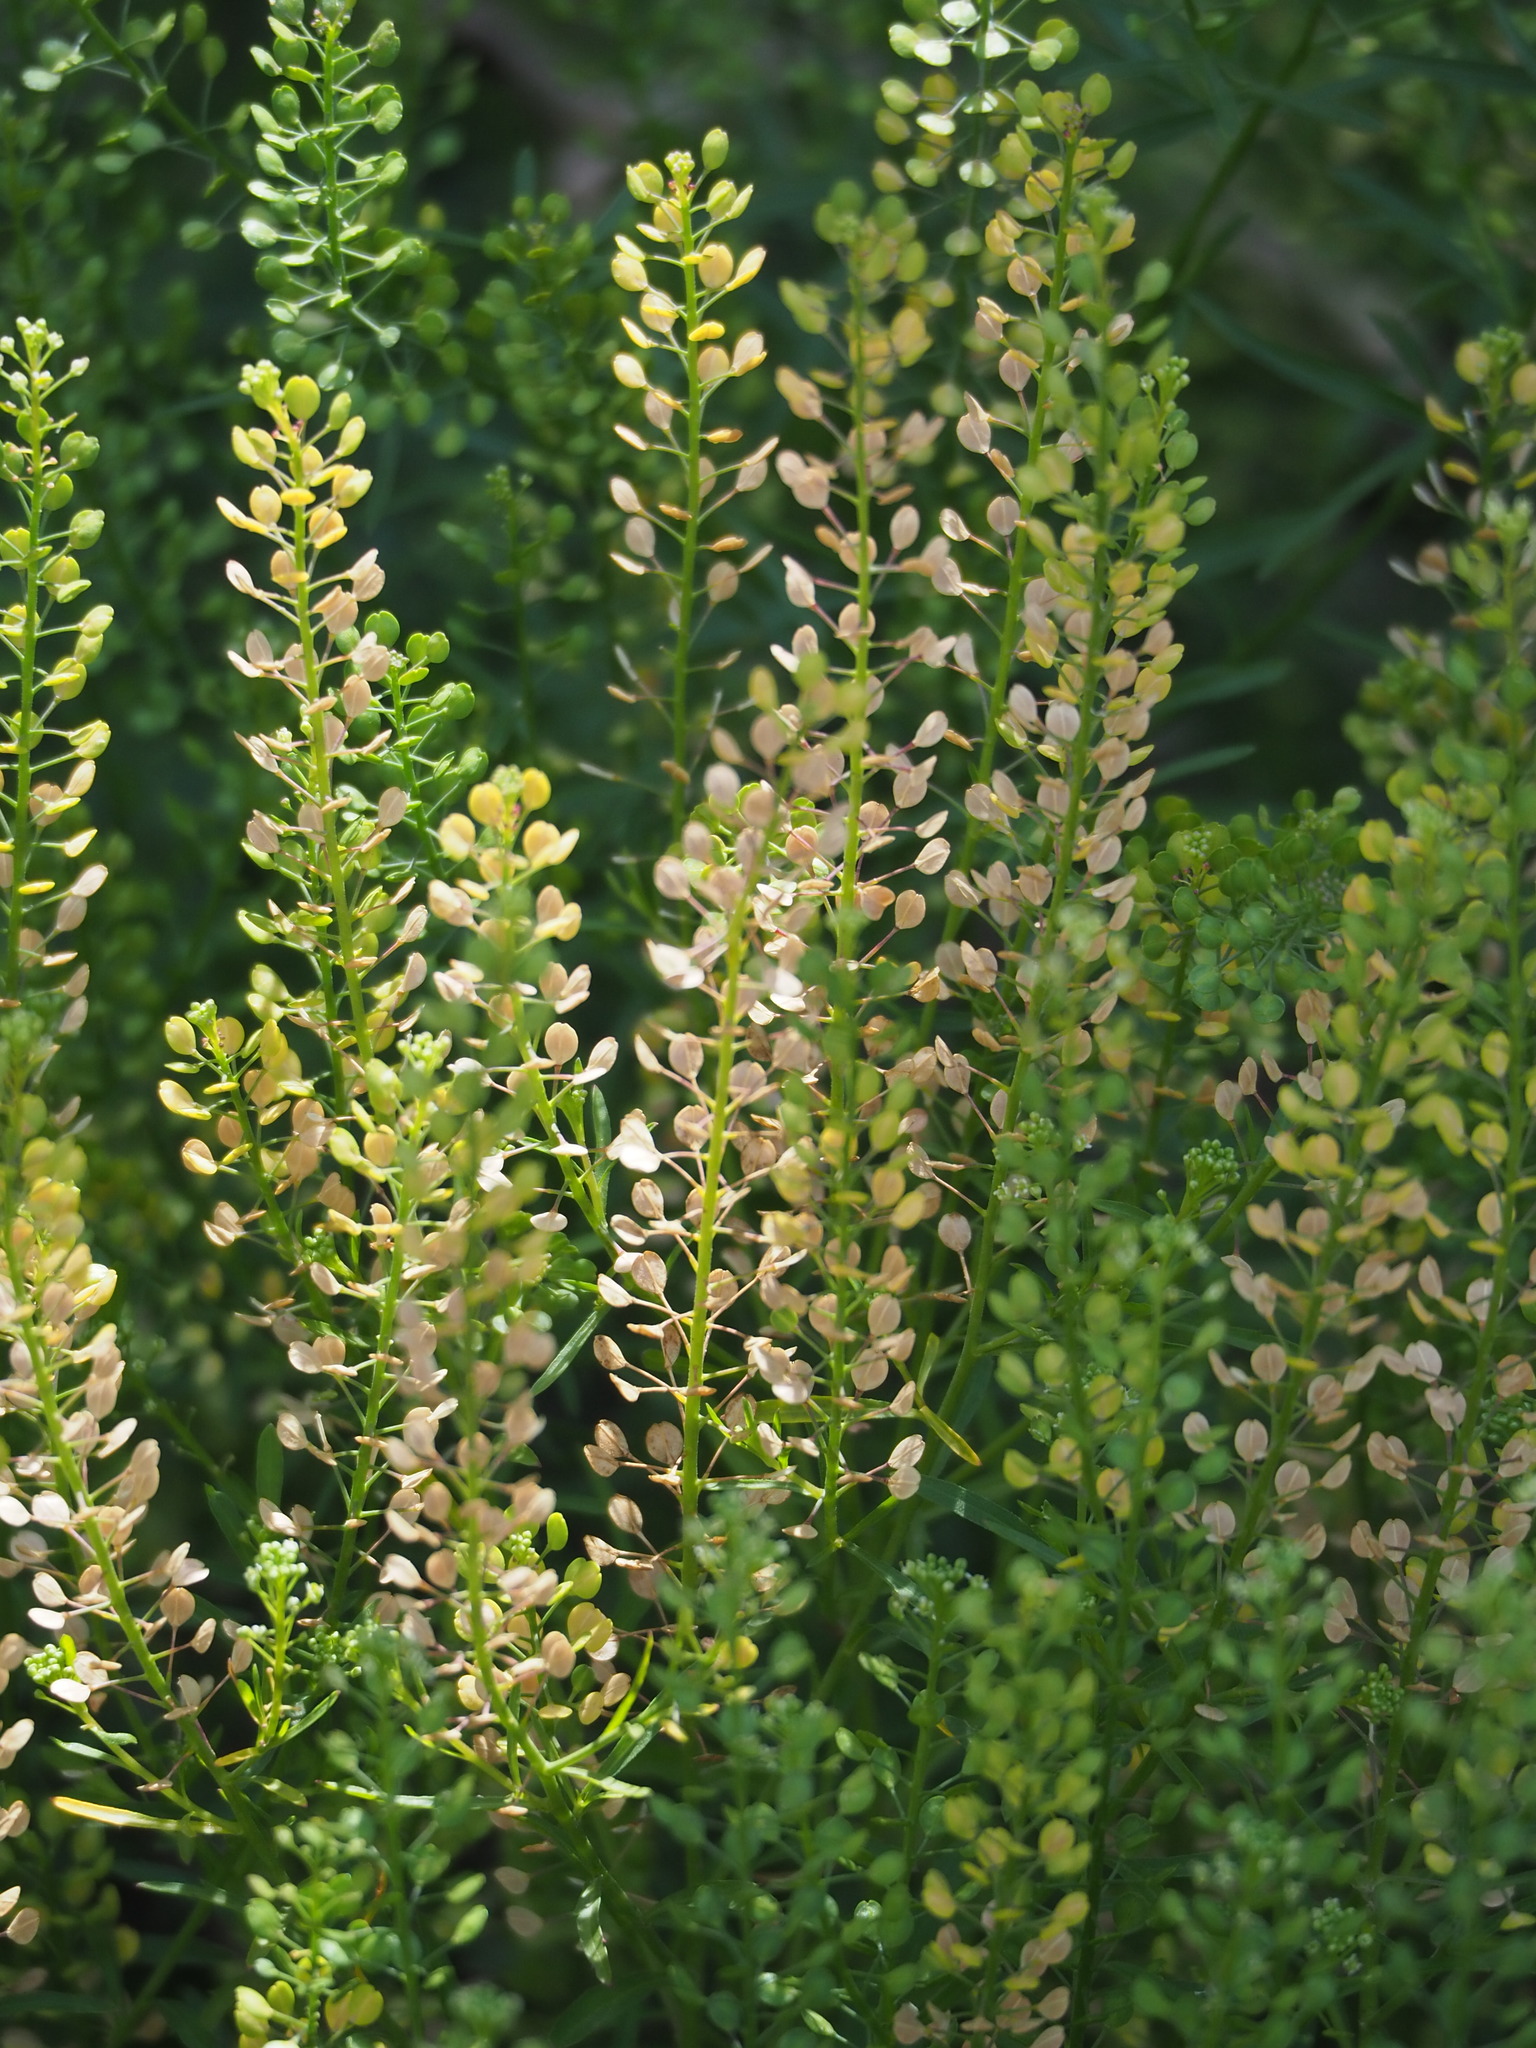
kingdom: Plantae
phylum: Tracheophyta
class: Magnoliopsida
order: Brassicales
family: Brassicaceae
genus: Lepidium
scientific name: Lepidium virginicum
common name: Least pepperwort
